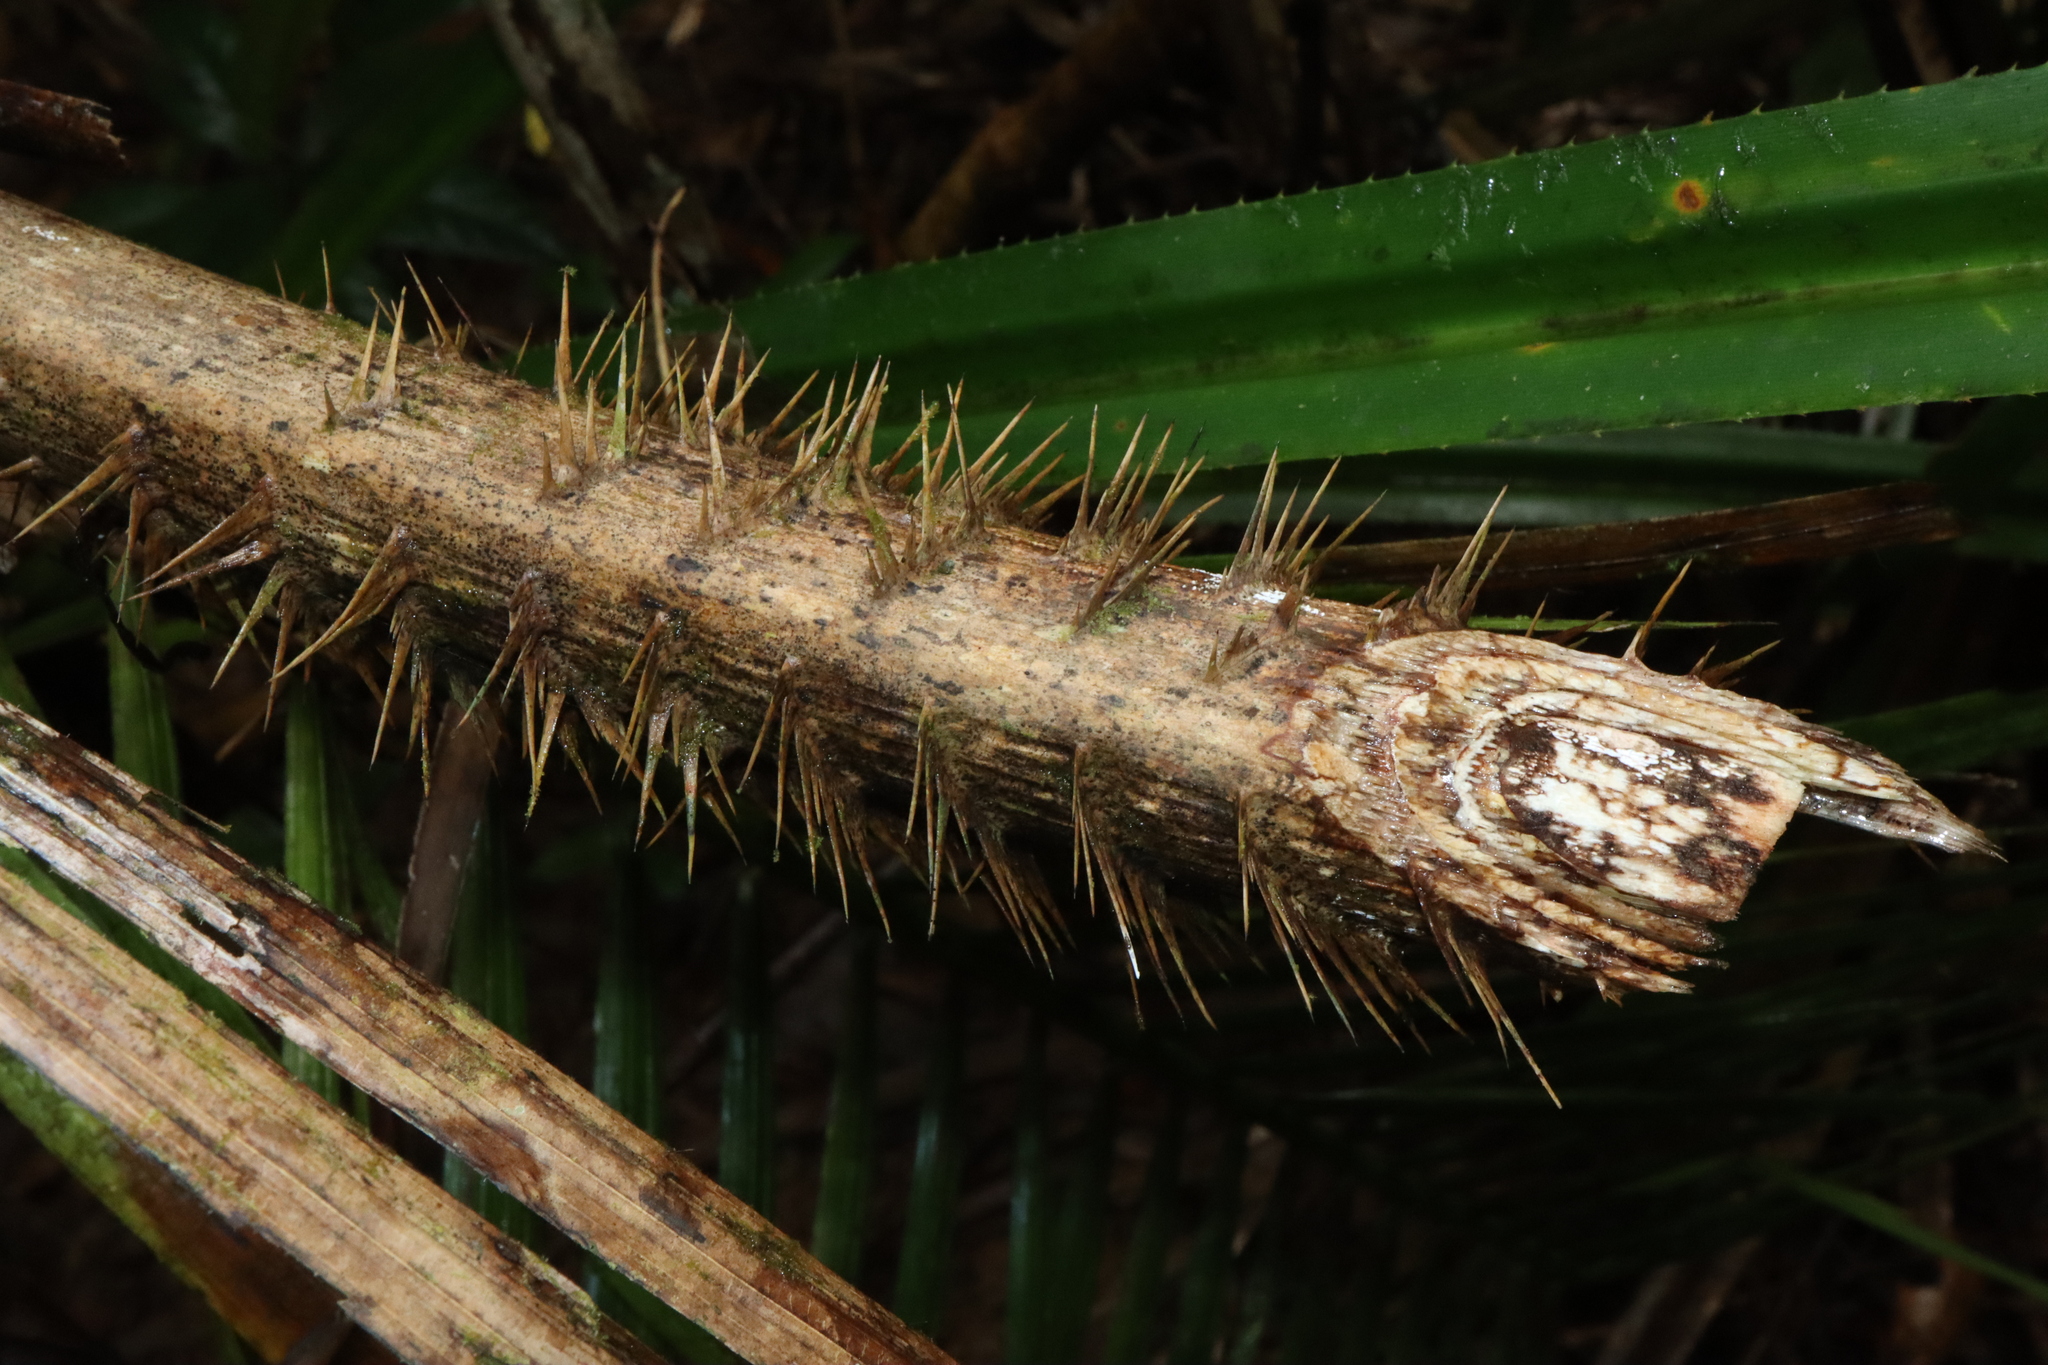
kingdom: Plantae
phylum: Tracheophyta
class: Liliopsida
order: Arecales
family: Arecaceae
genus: Calamus
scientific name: Calamus moti
